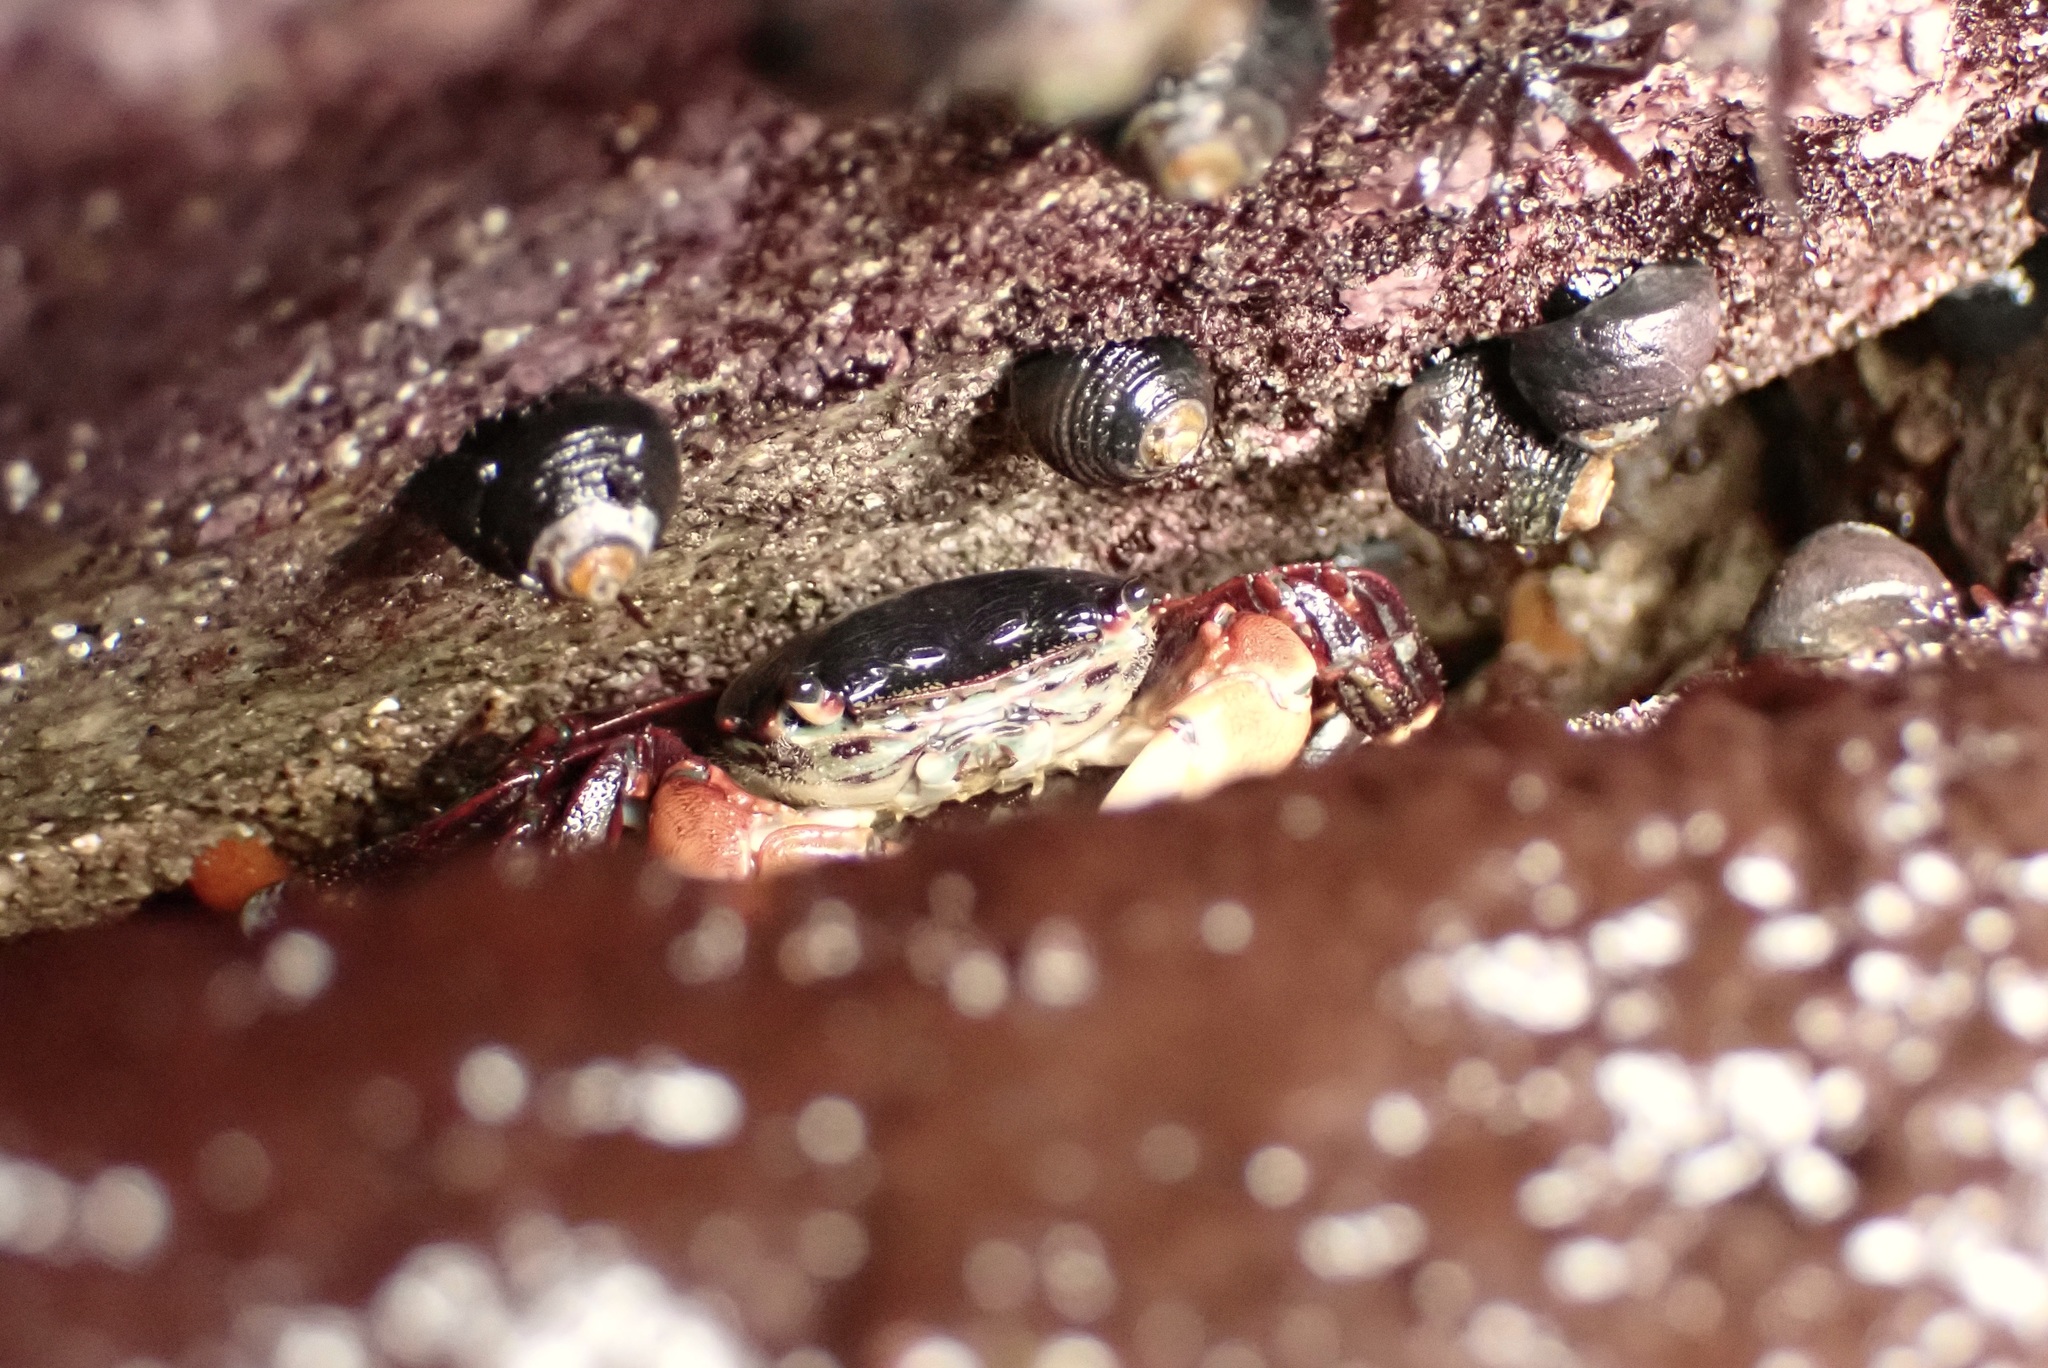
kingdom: Animalia
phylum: Arthropoda
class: Malacostraca
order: Decapoda
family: Grapsidae
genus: Pachygrapsus
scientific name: Pachygrapsus crassipes
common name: Striped shore crab
